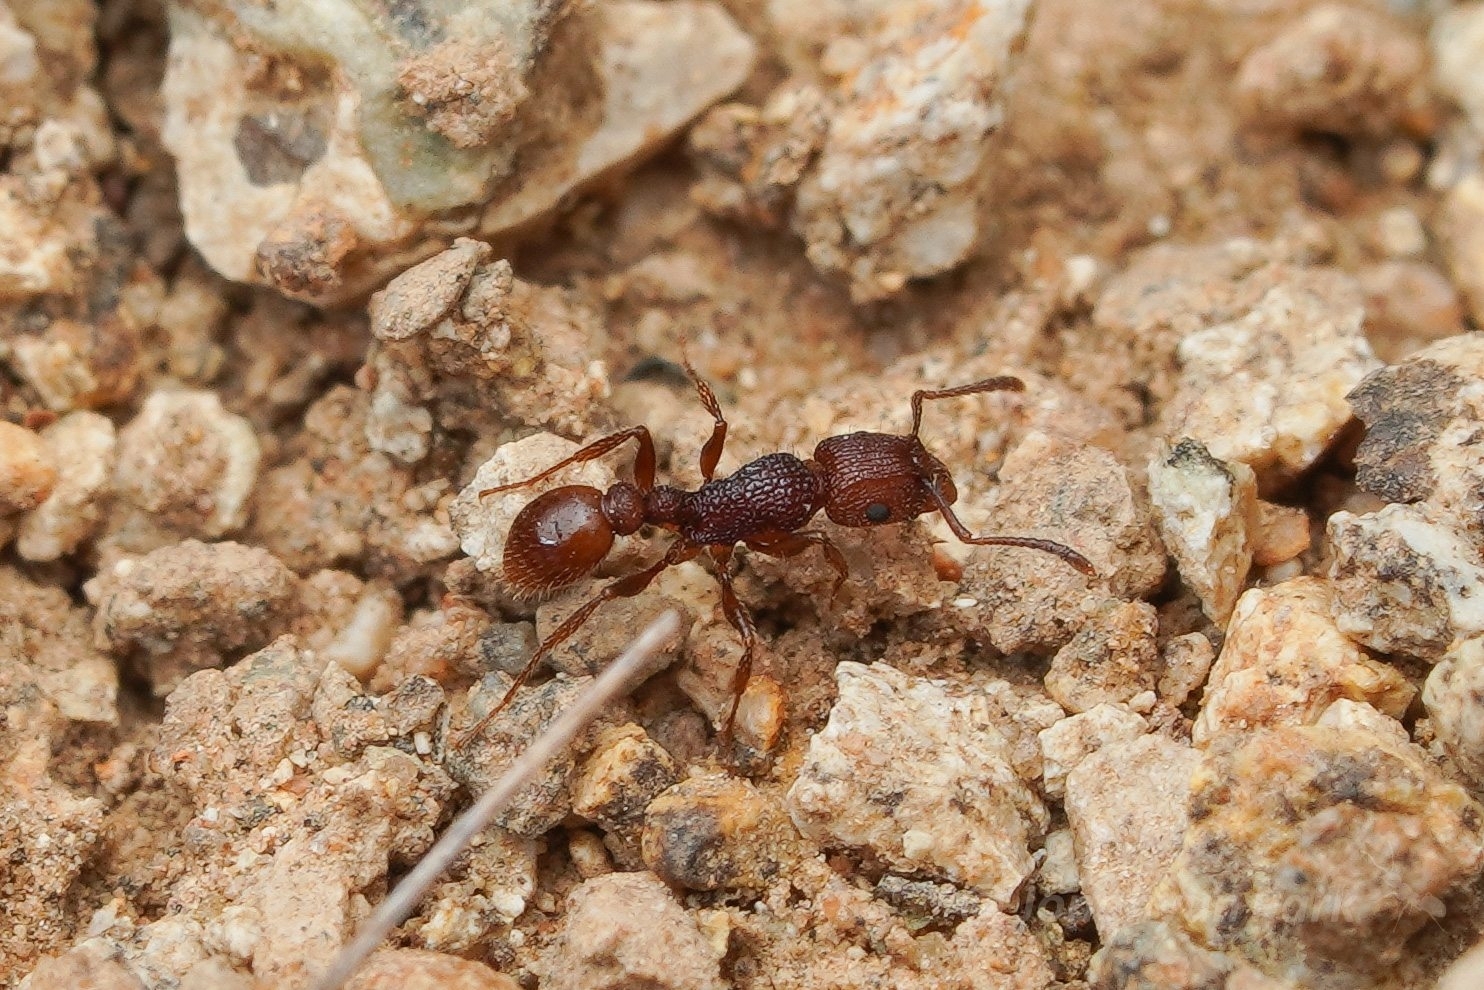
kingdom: Animalia
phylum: Arthropoda
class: Insecta
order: Hymenoptera
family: Formicidae
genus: Tetramorium
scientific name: Tetramorium hispidum
